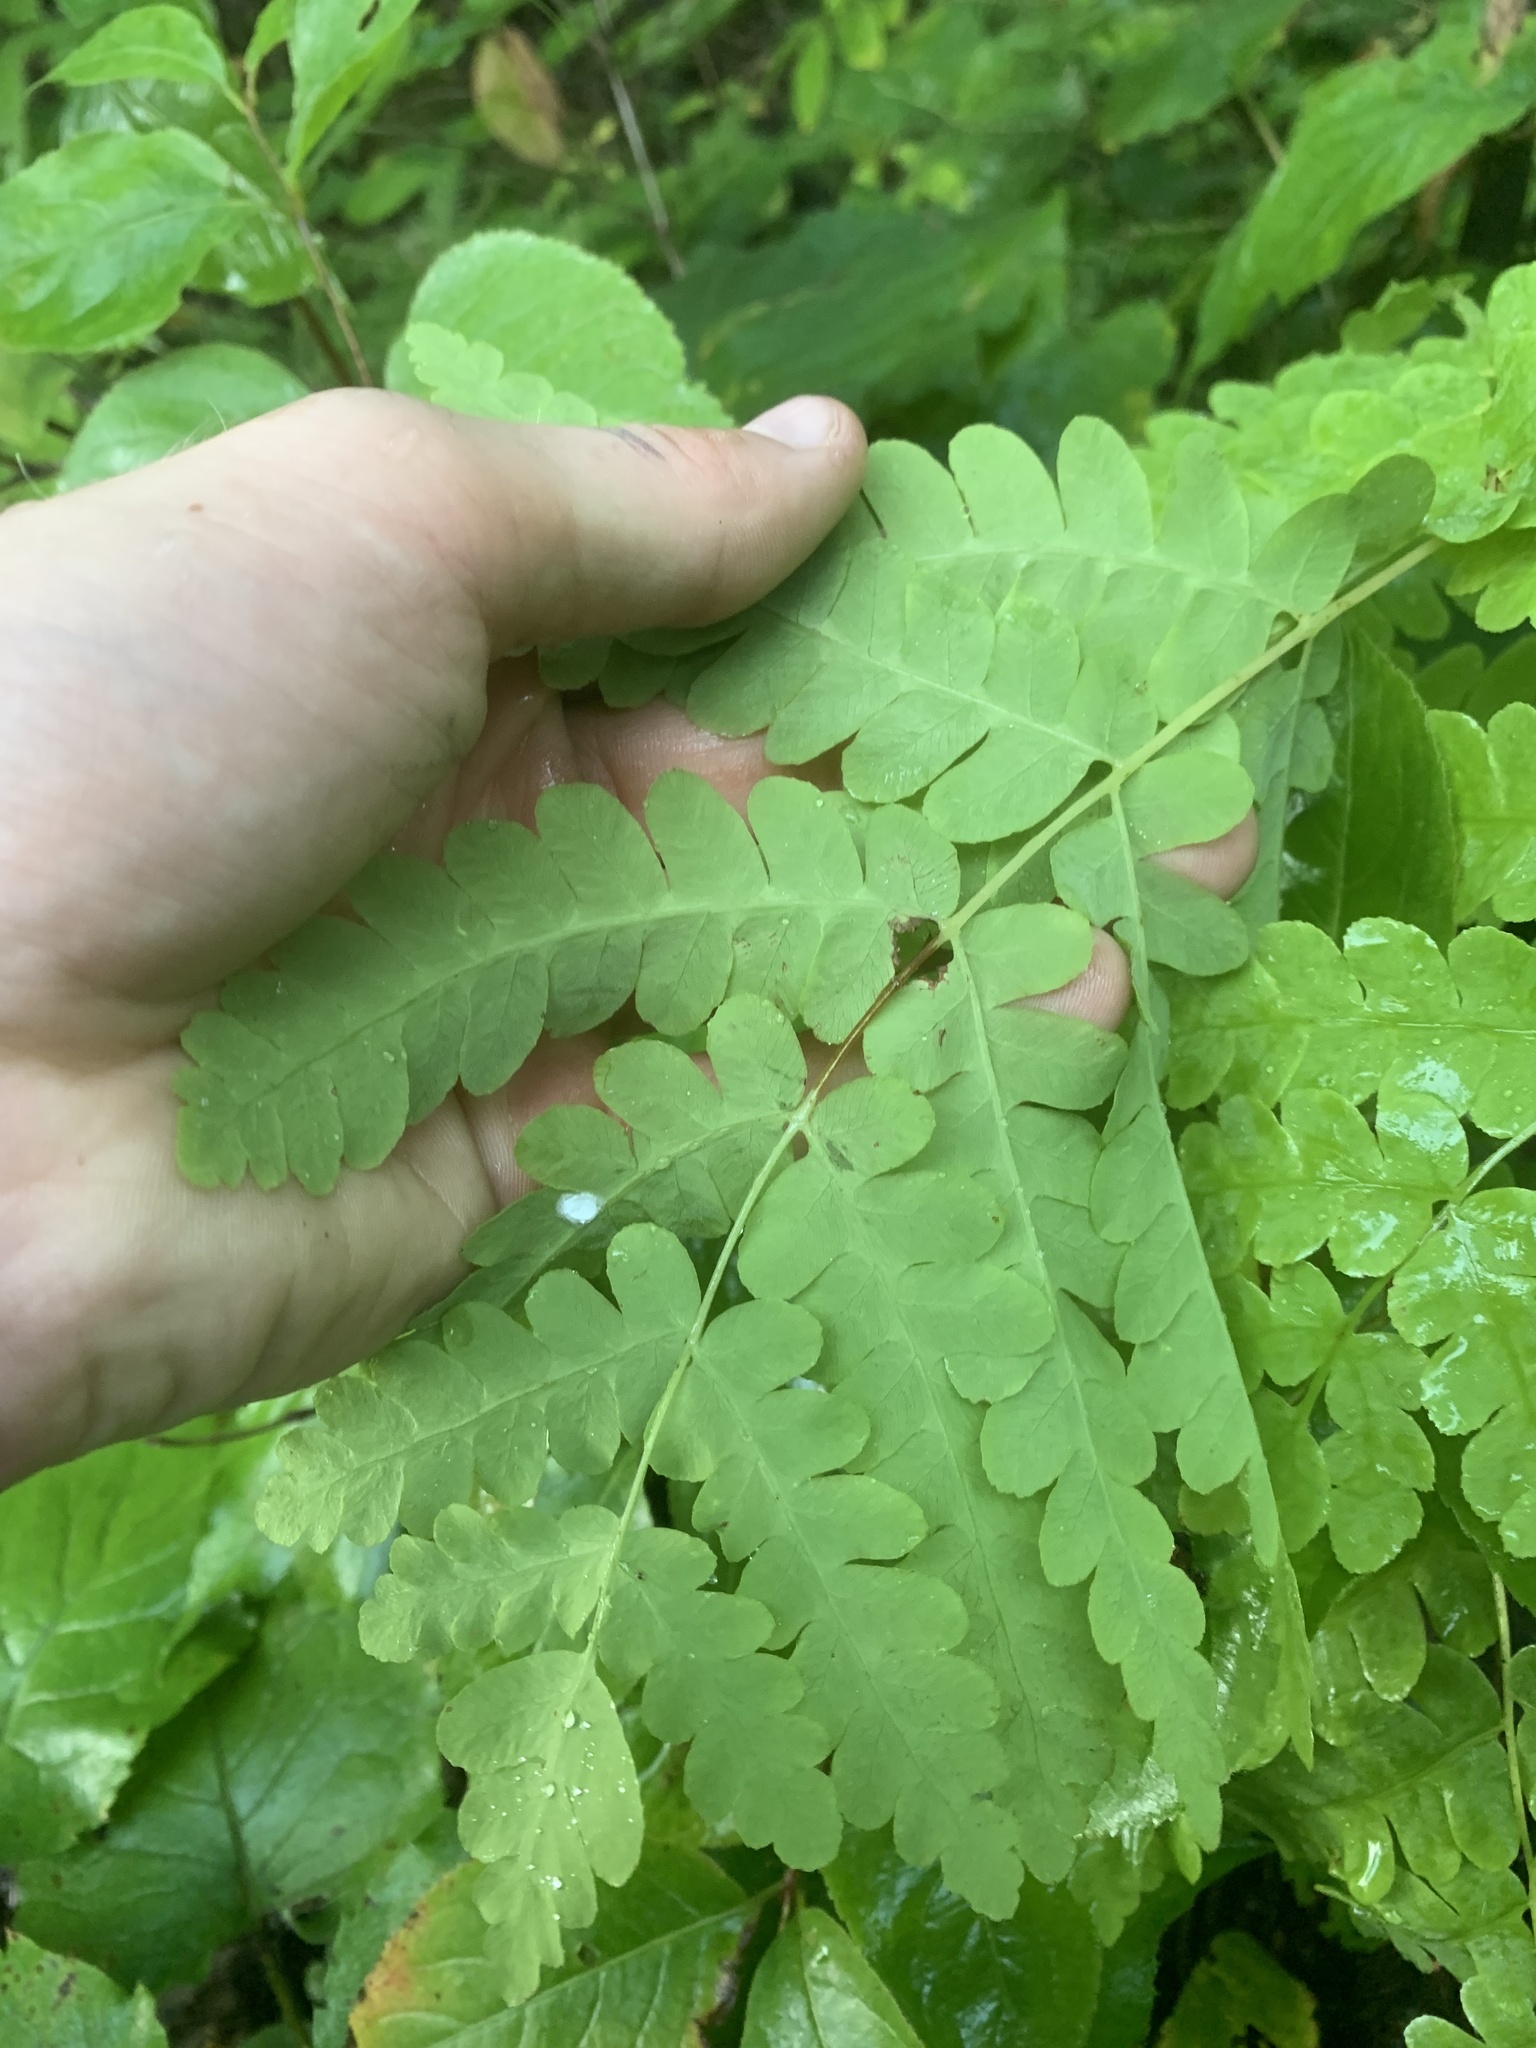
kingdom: Plantae
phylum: Tracheophyta
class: Polypodiopsida
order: Osmundales
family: Osmundaceae
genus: Claytosmunda
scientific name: Claytosmunda claytoniana
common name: Clayton's fern
